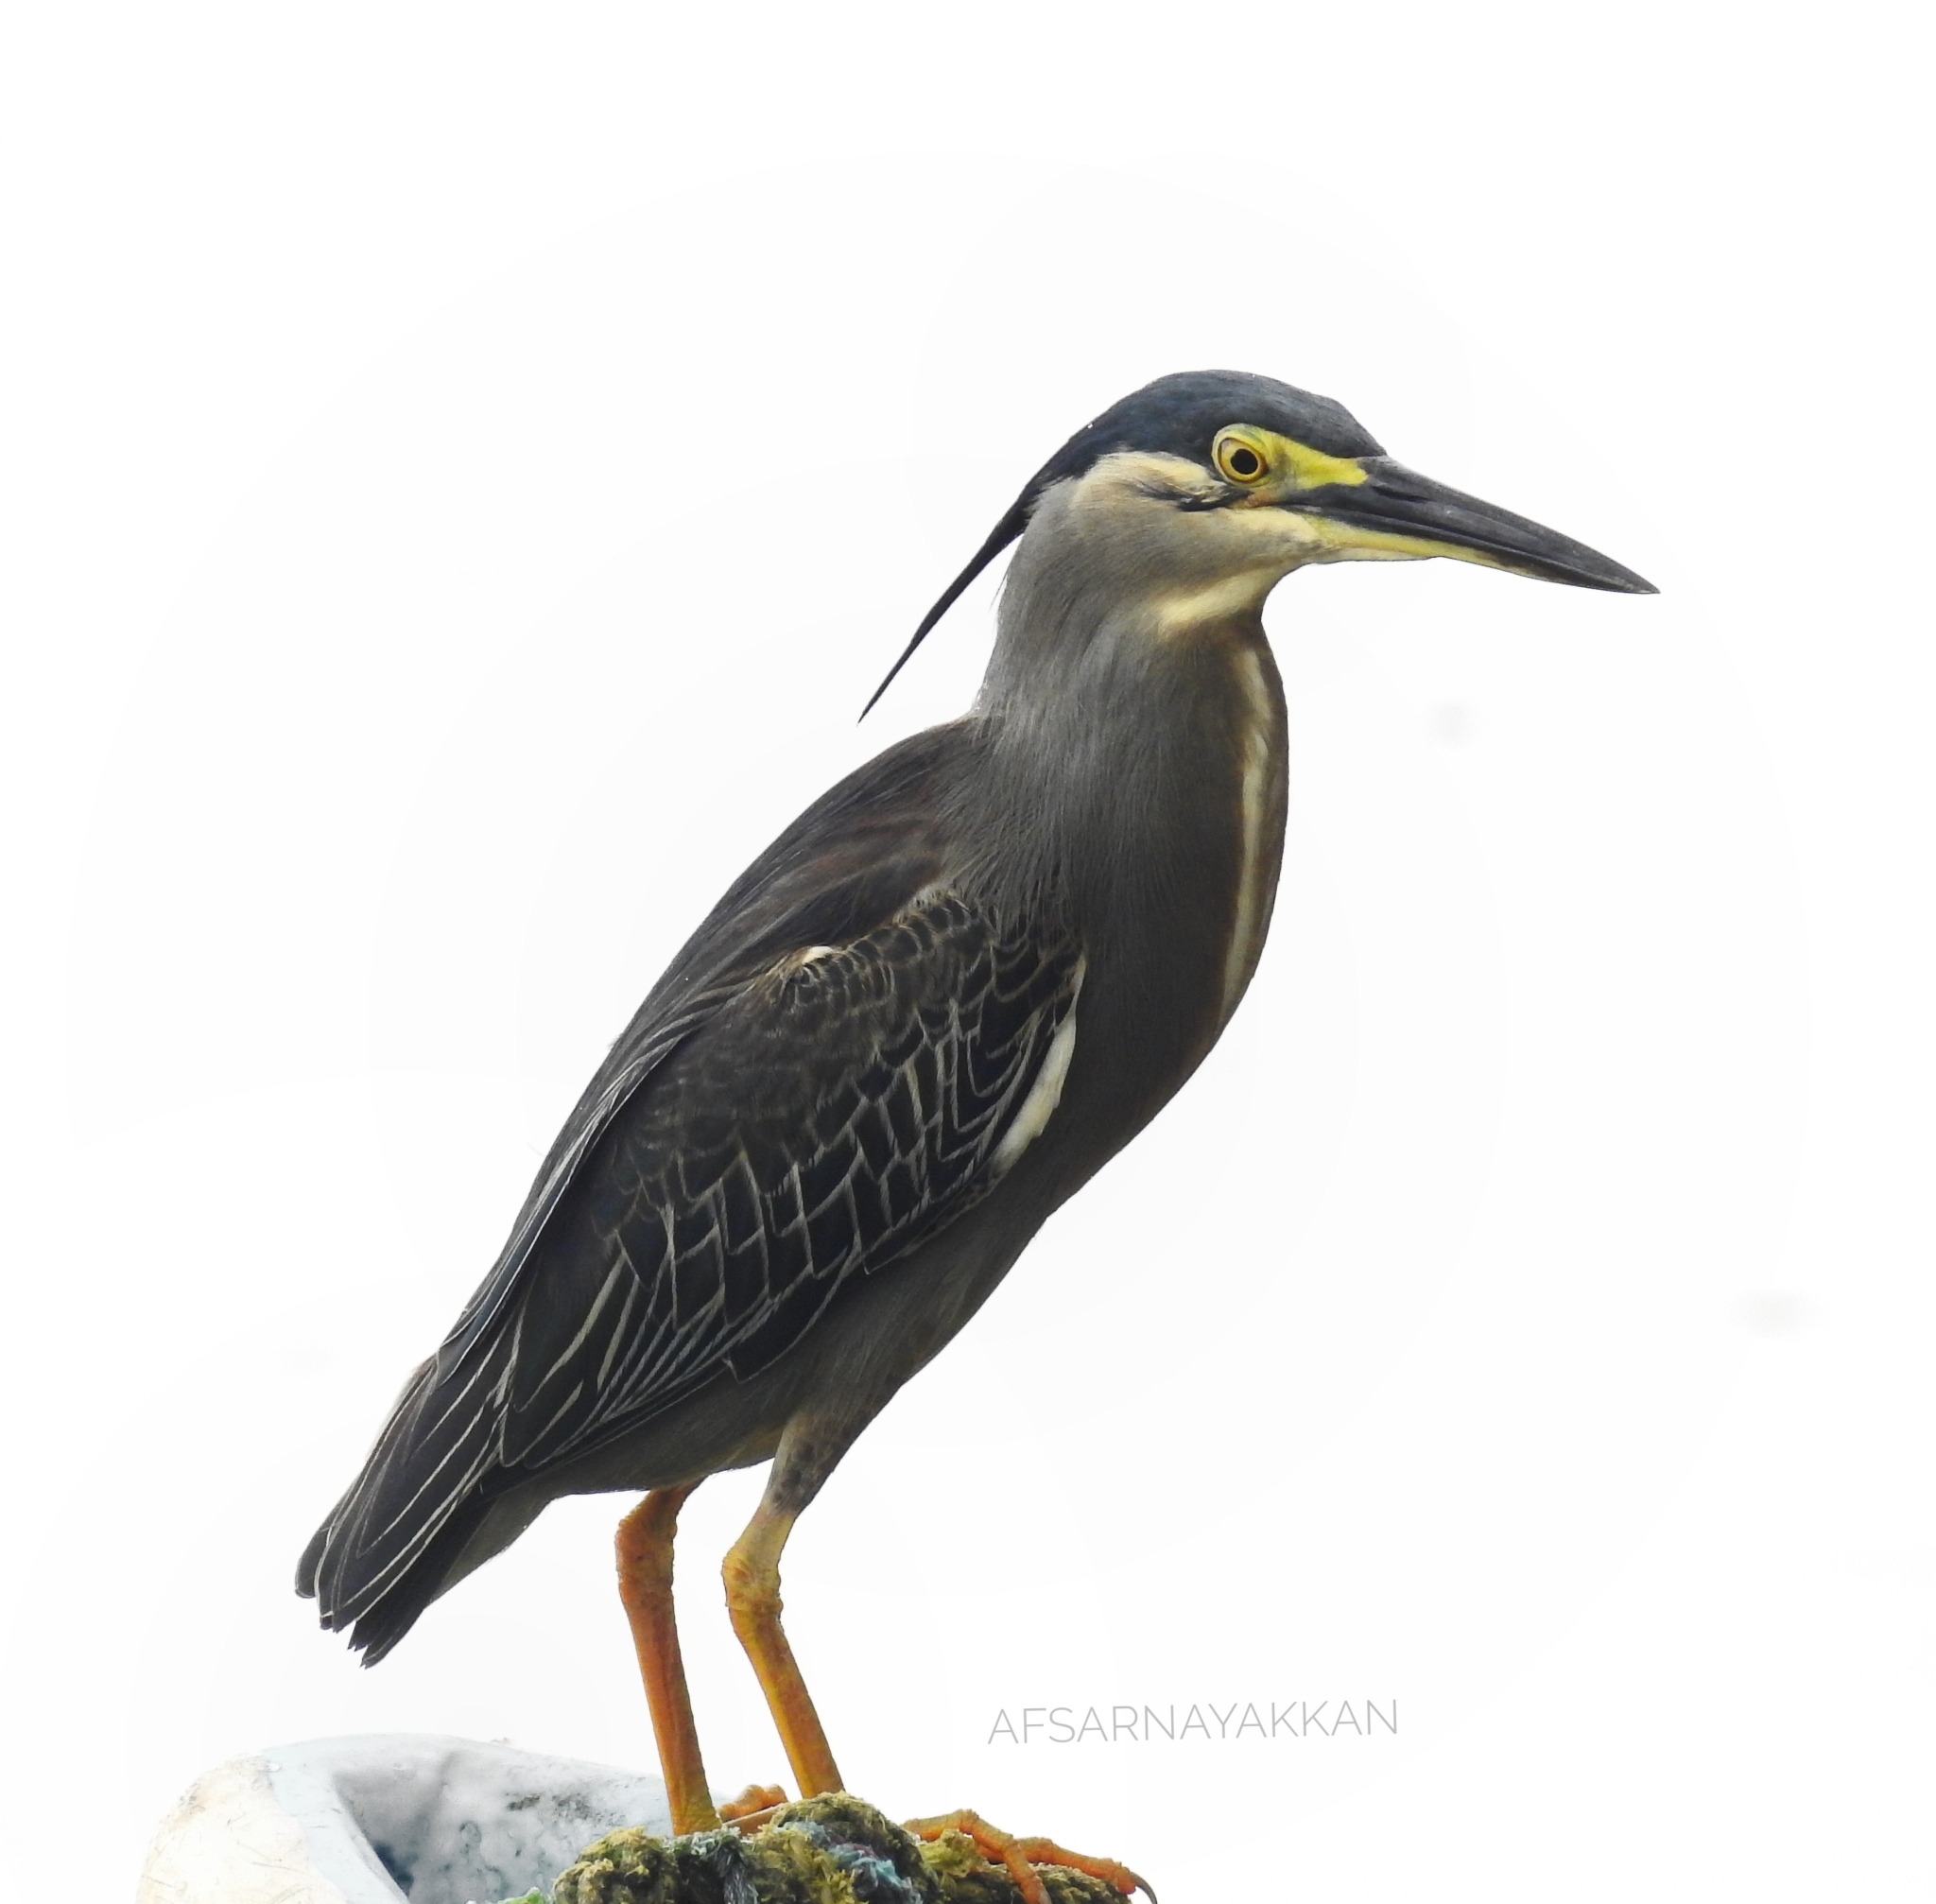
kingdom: Animalia
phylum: Chordata
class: Aves
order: Pelecaniformes
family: Ardeidae
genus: Butorides
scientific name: Butorides striata
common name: Striated heron
